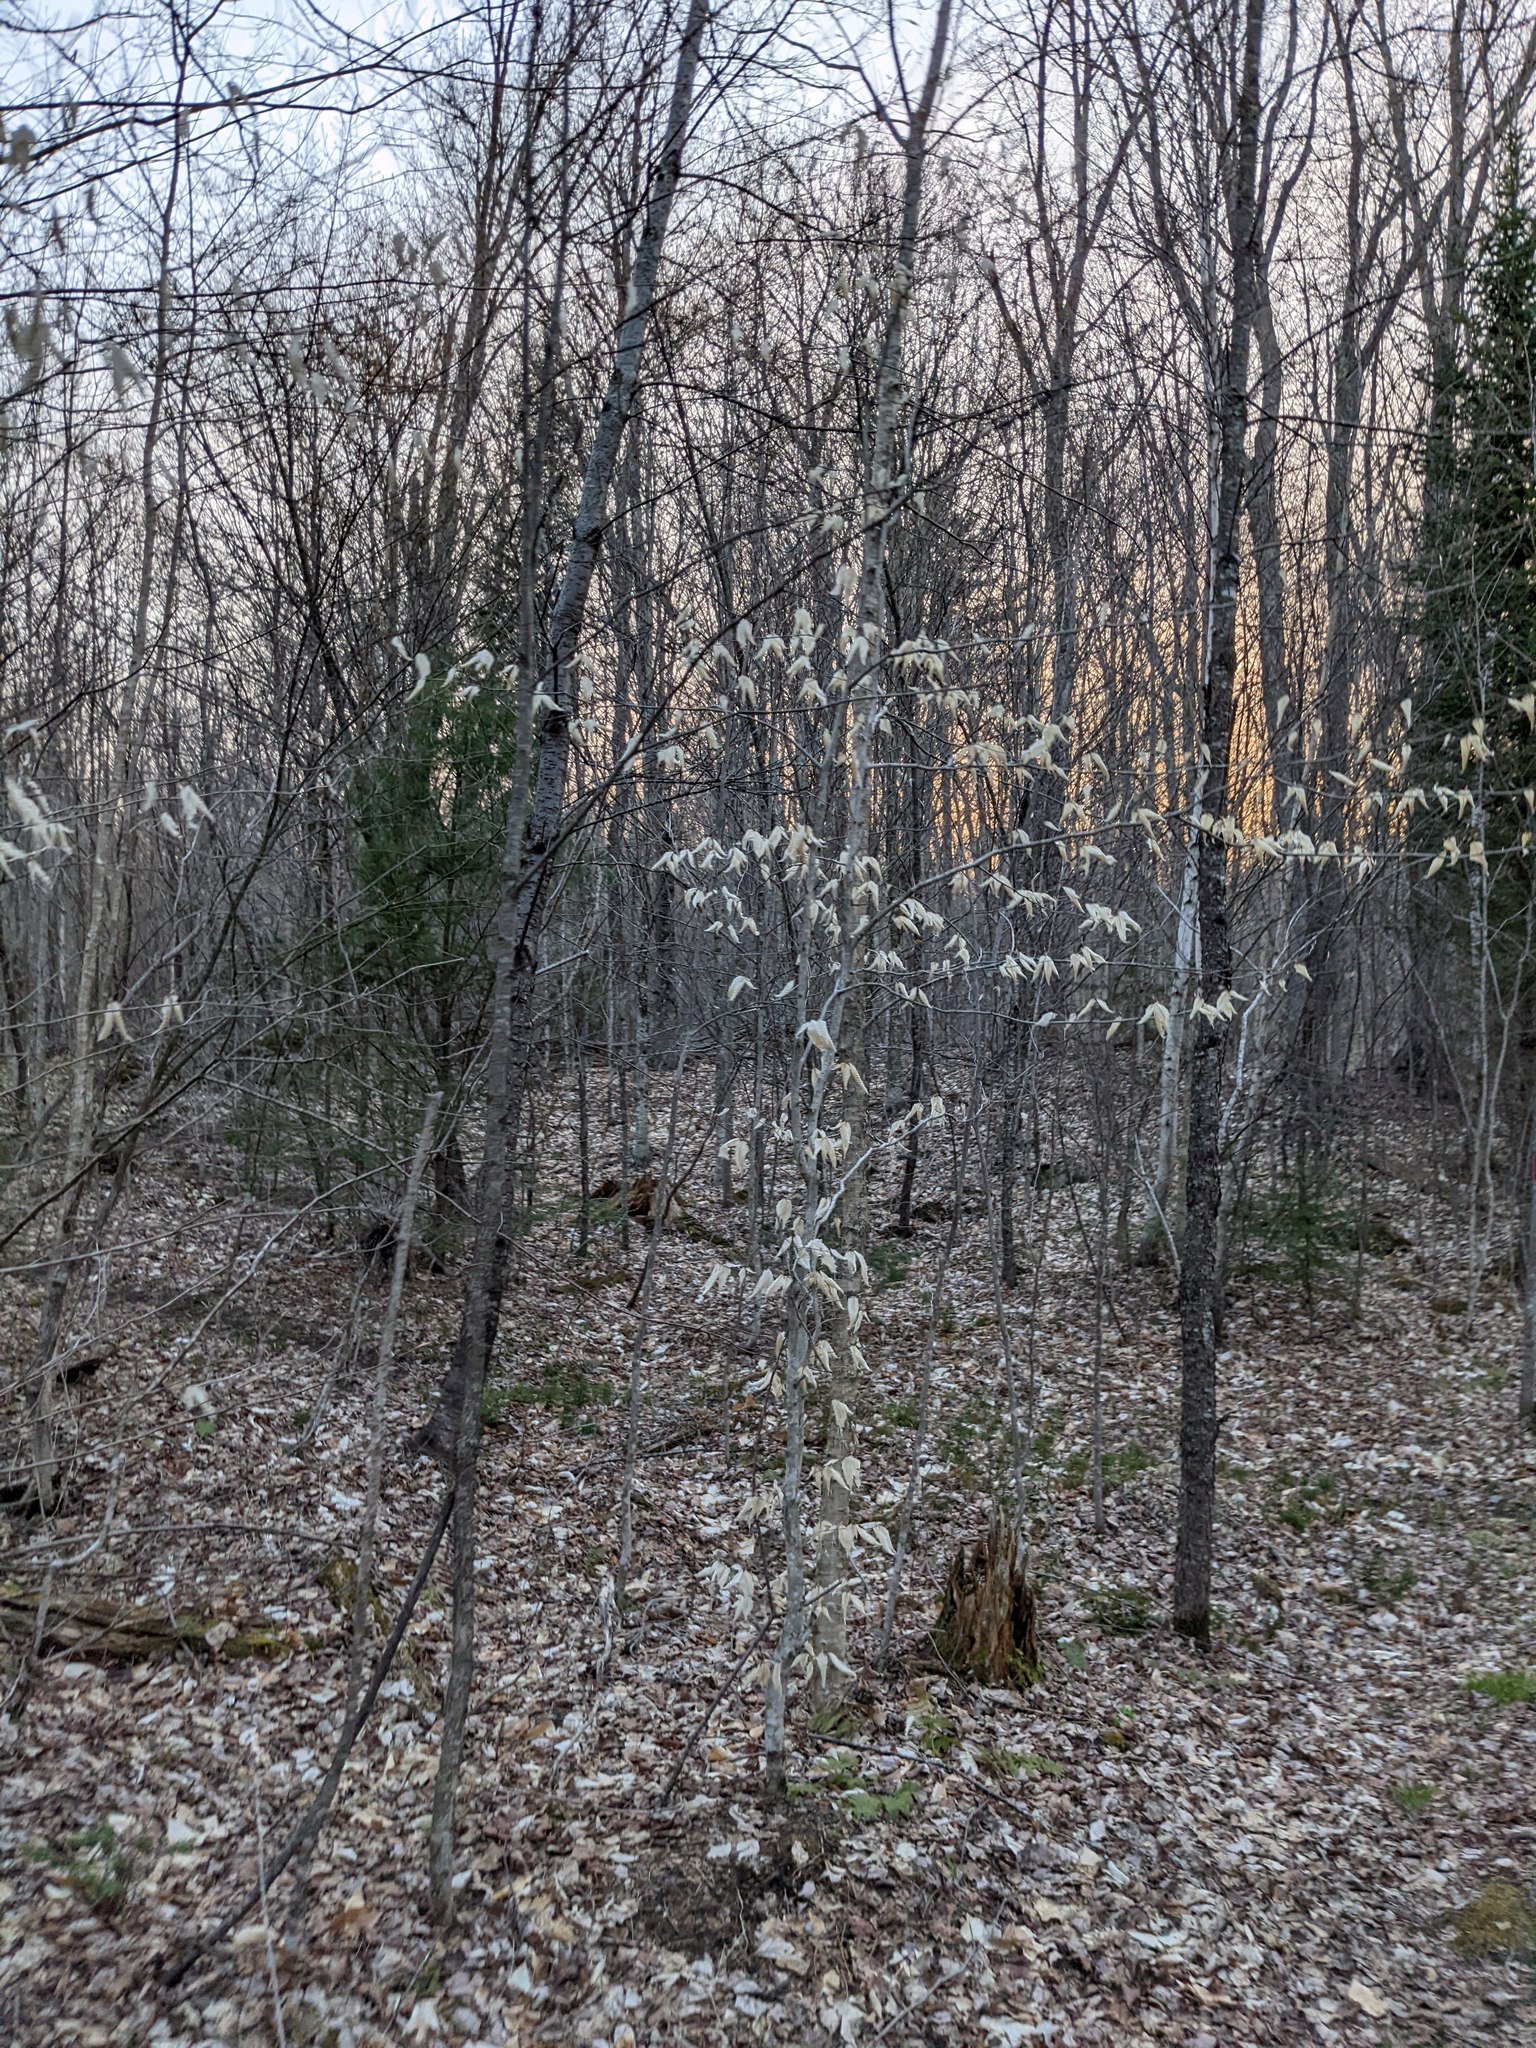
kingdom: Plantae
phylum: Tracheophyta
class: Magnoliopsida
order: Fagales
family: Fagaceae
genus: Fagus
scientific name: Fagus grandifolia
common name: American beech
